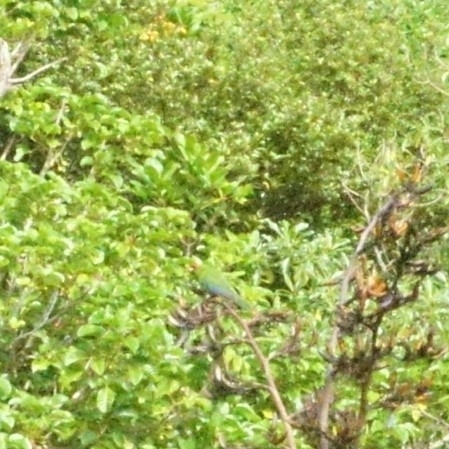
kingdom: Animalia
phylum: Chordata
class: Aves
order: Psittaciformes
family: Psittacidae
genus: Cyanoramphus
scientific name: Cyanoramphus novaezelandiae
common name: Red-fronted parakeet
